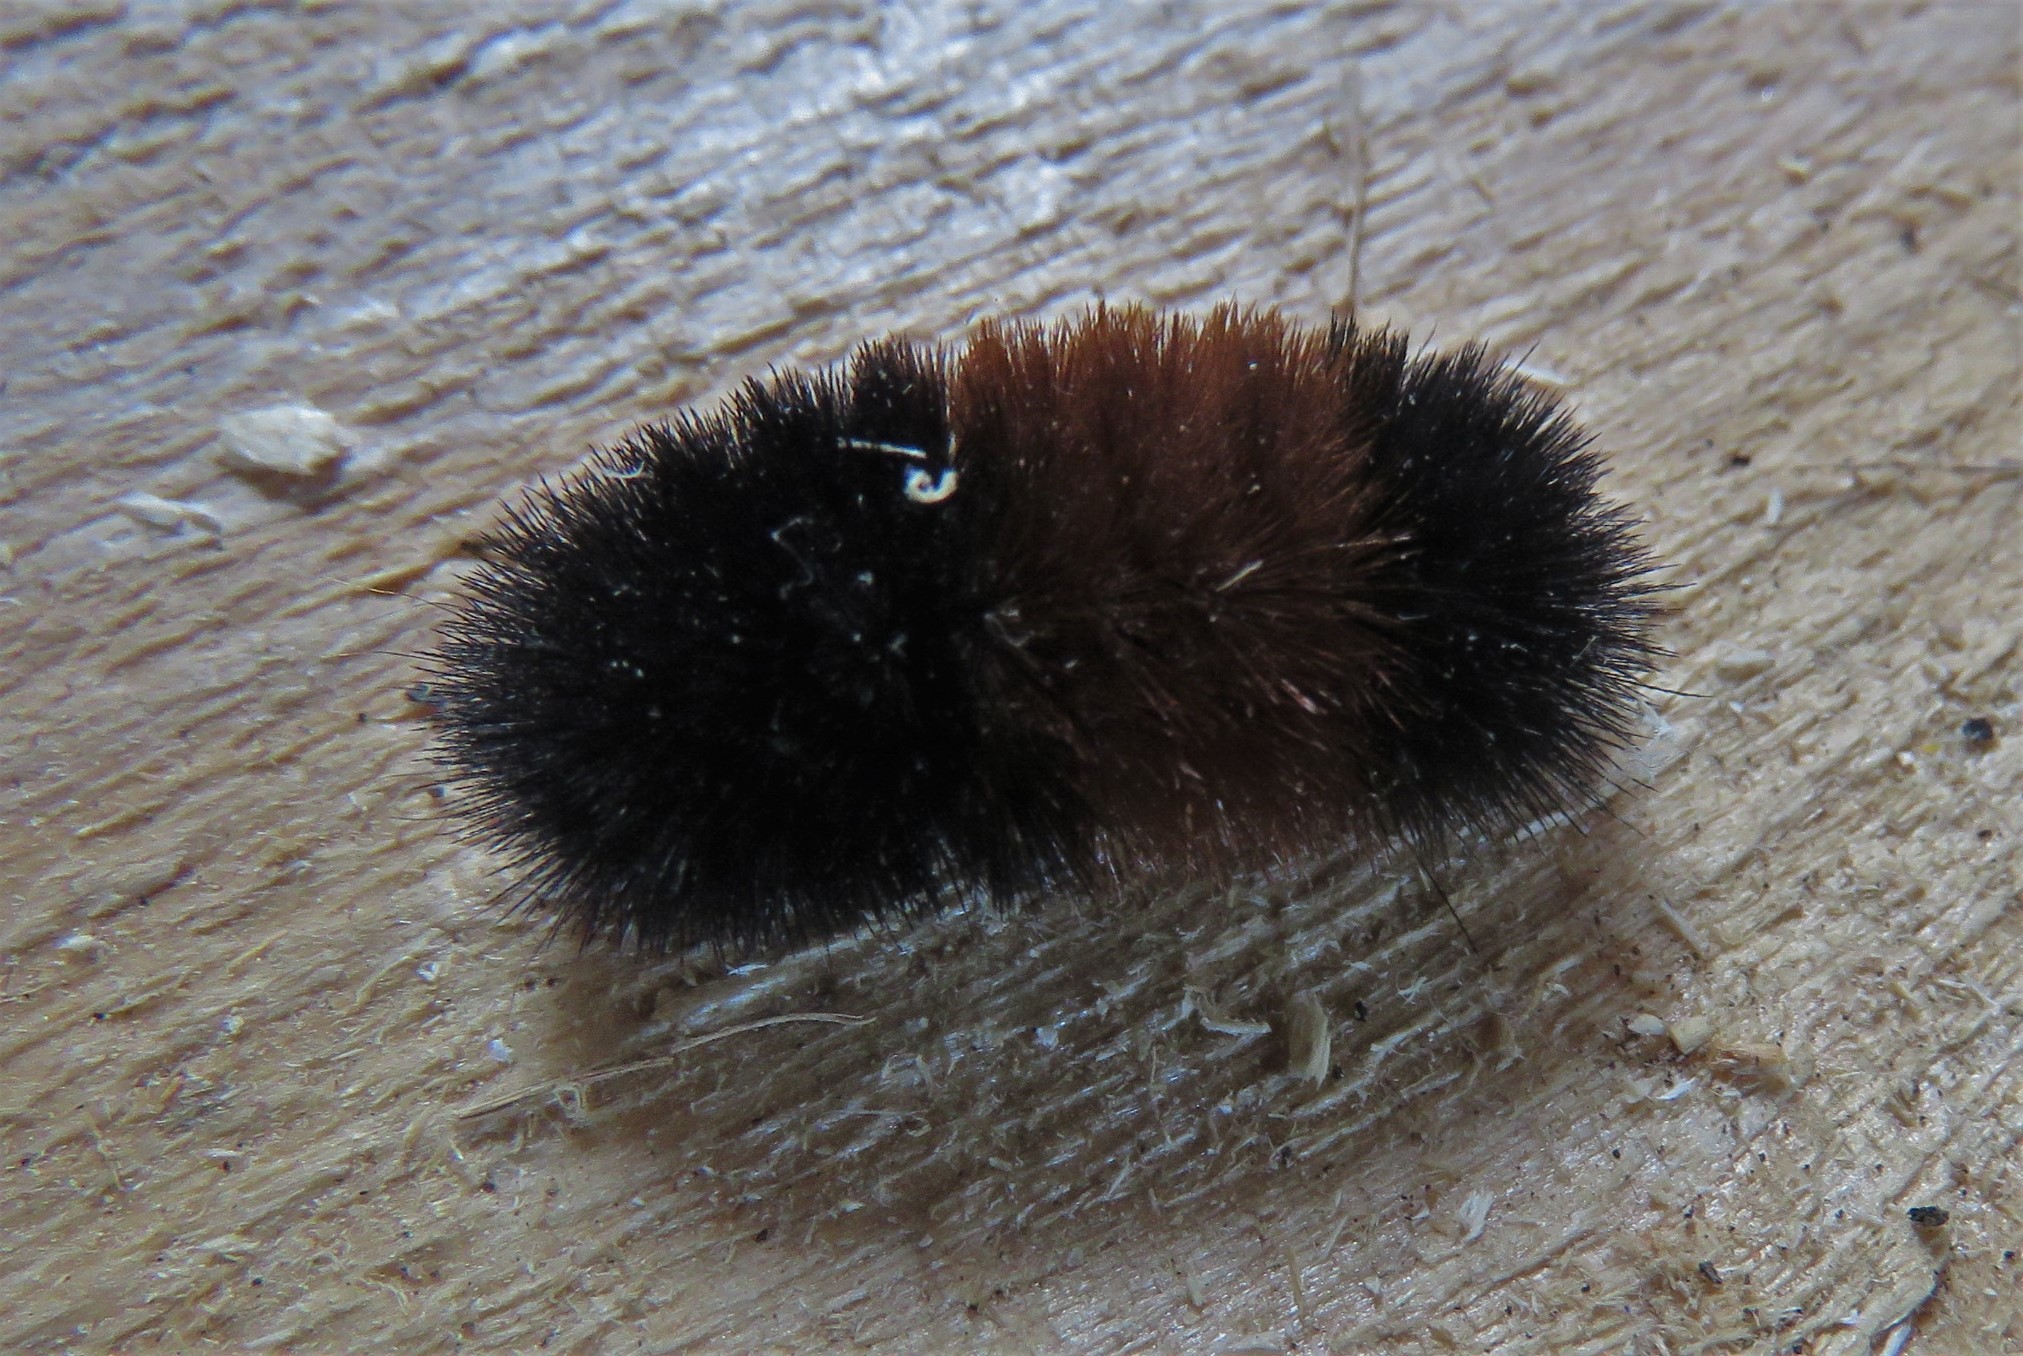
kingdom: Animalia
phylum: Arthropoda
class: Insecta
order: Lepidoptera
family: Erebidae
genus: Pyrrharctia
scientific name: Pyrrharctia isabella
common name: Isabella tiger moth
